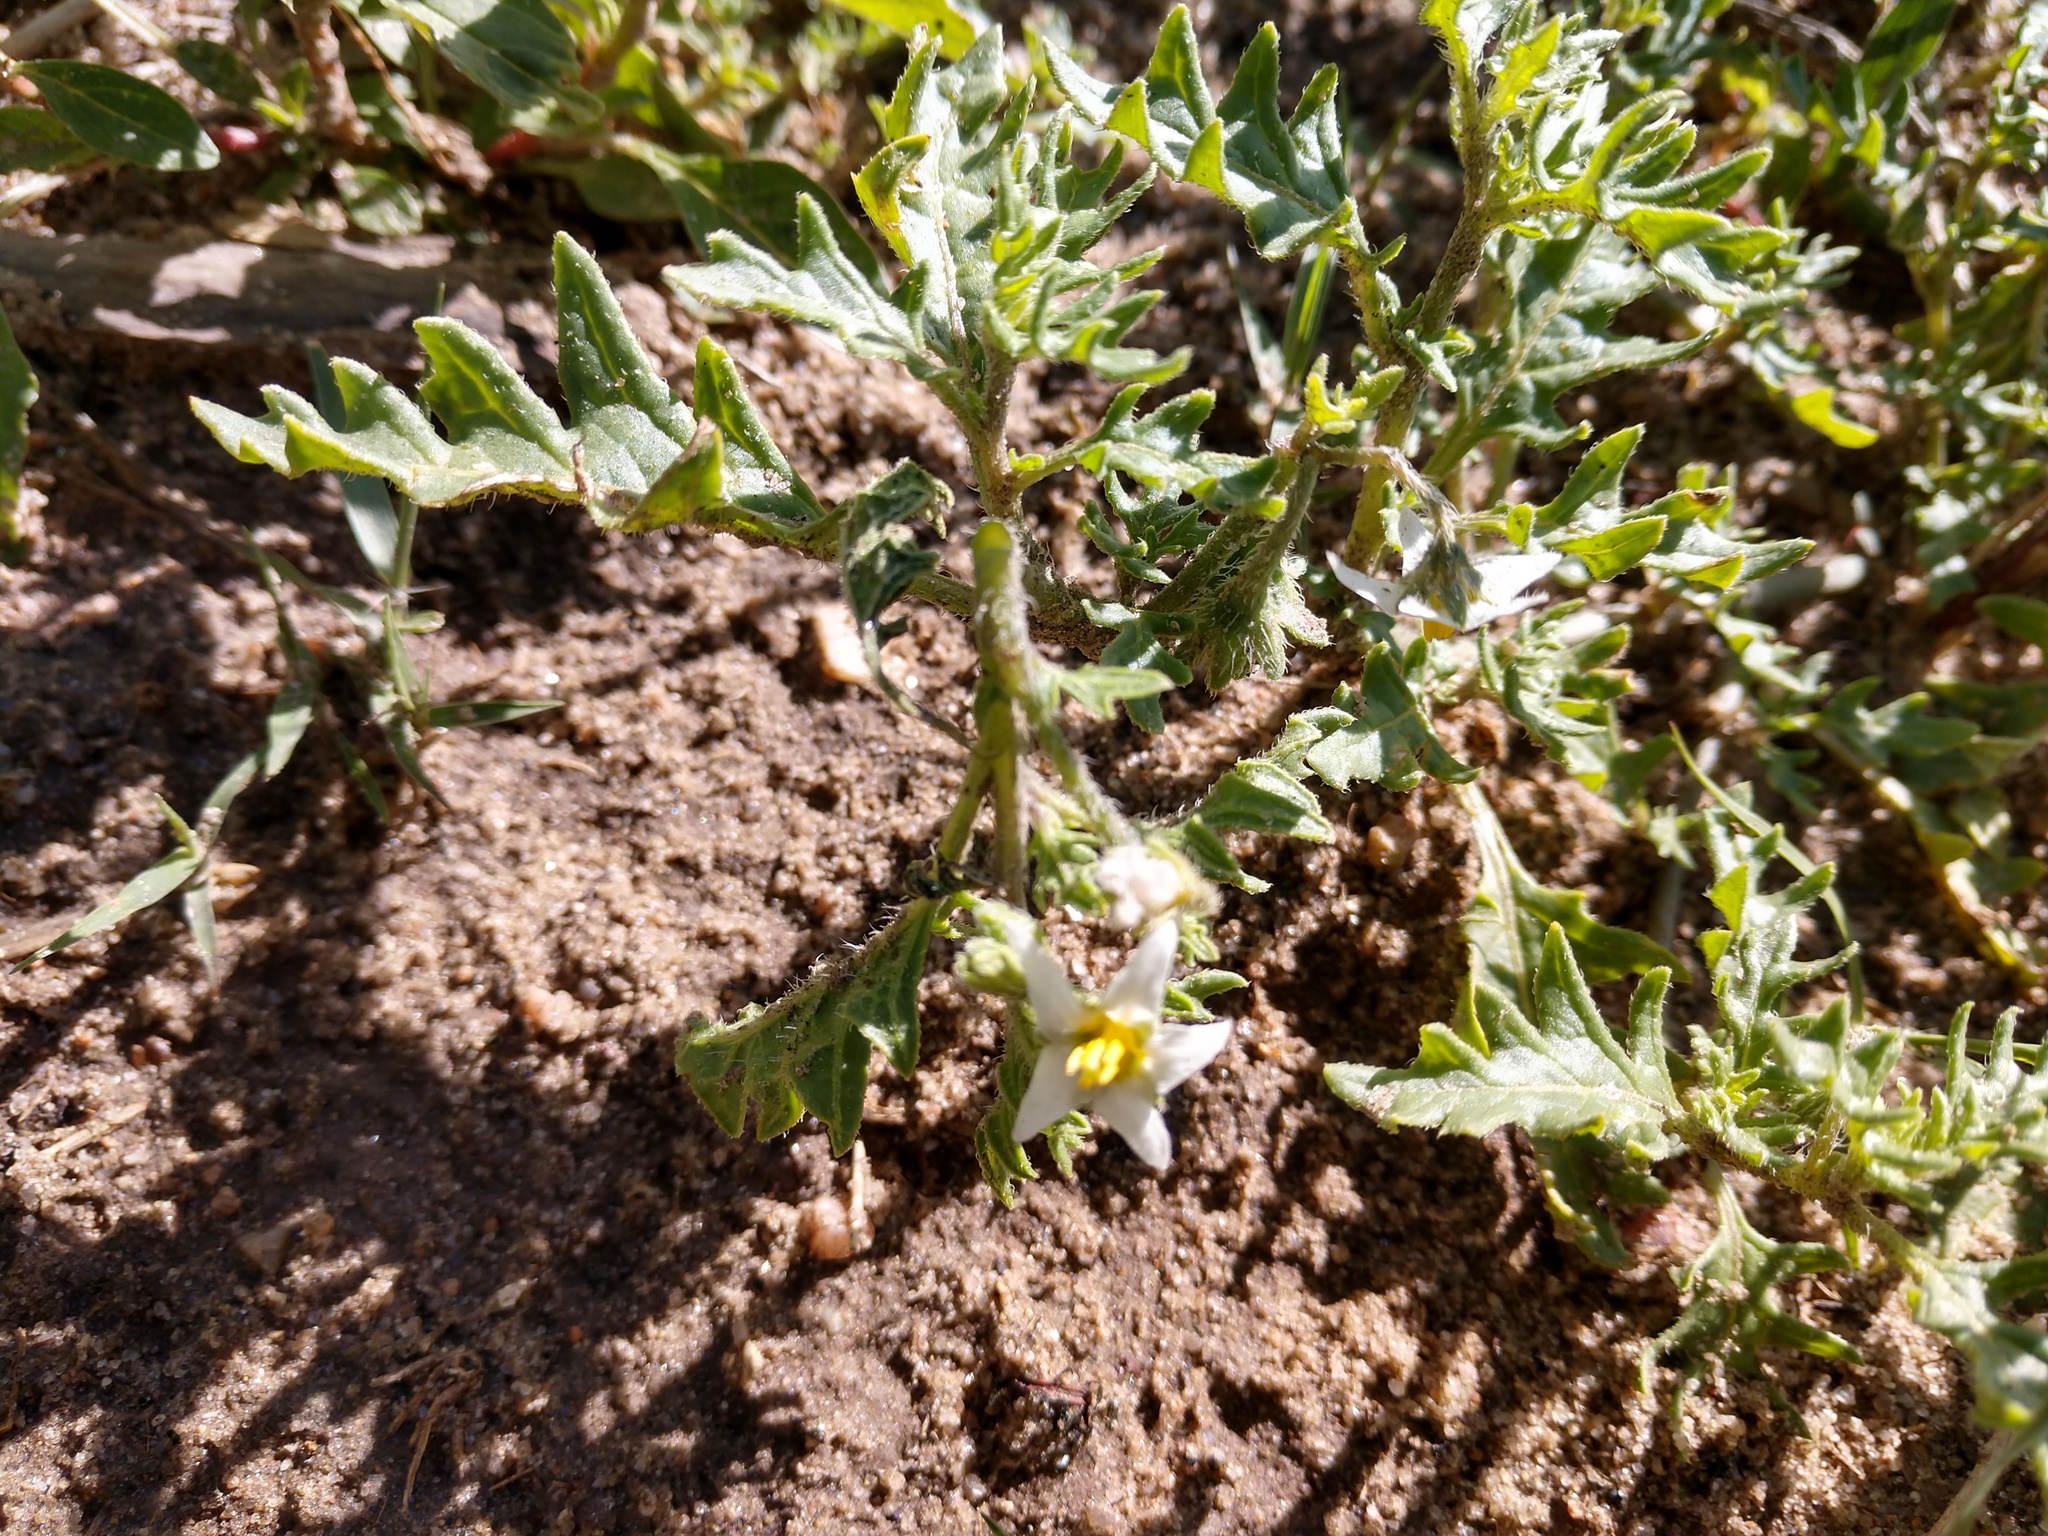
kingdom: Plantae
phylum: Tracheophyta
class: Magnoliopsida
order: Solanales
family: Solanaceae
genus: Solanum
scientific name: Solanum triflorum
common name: Small nightshade
